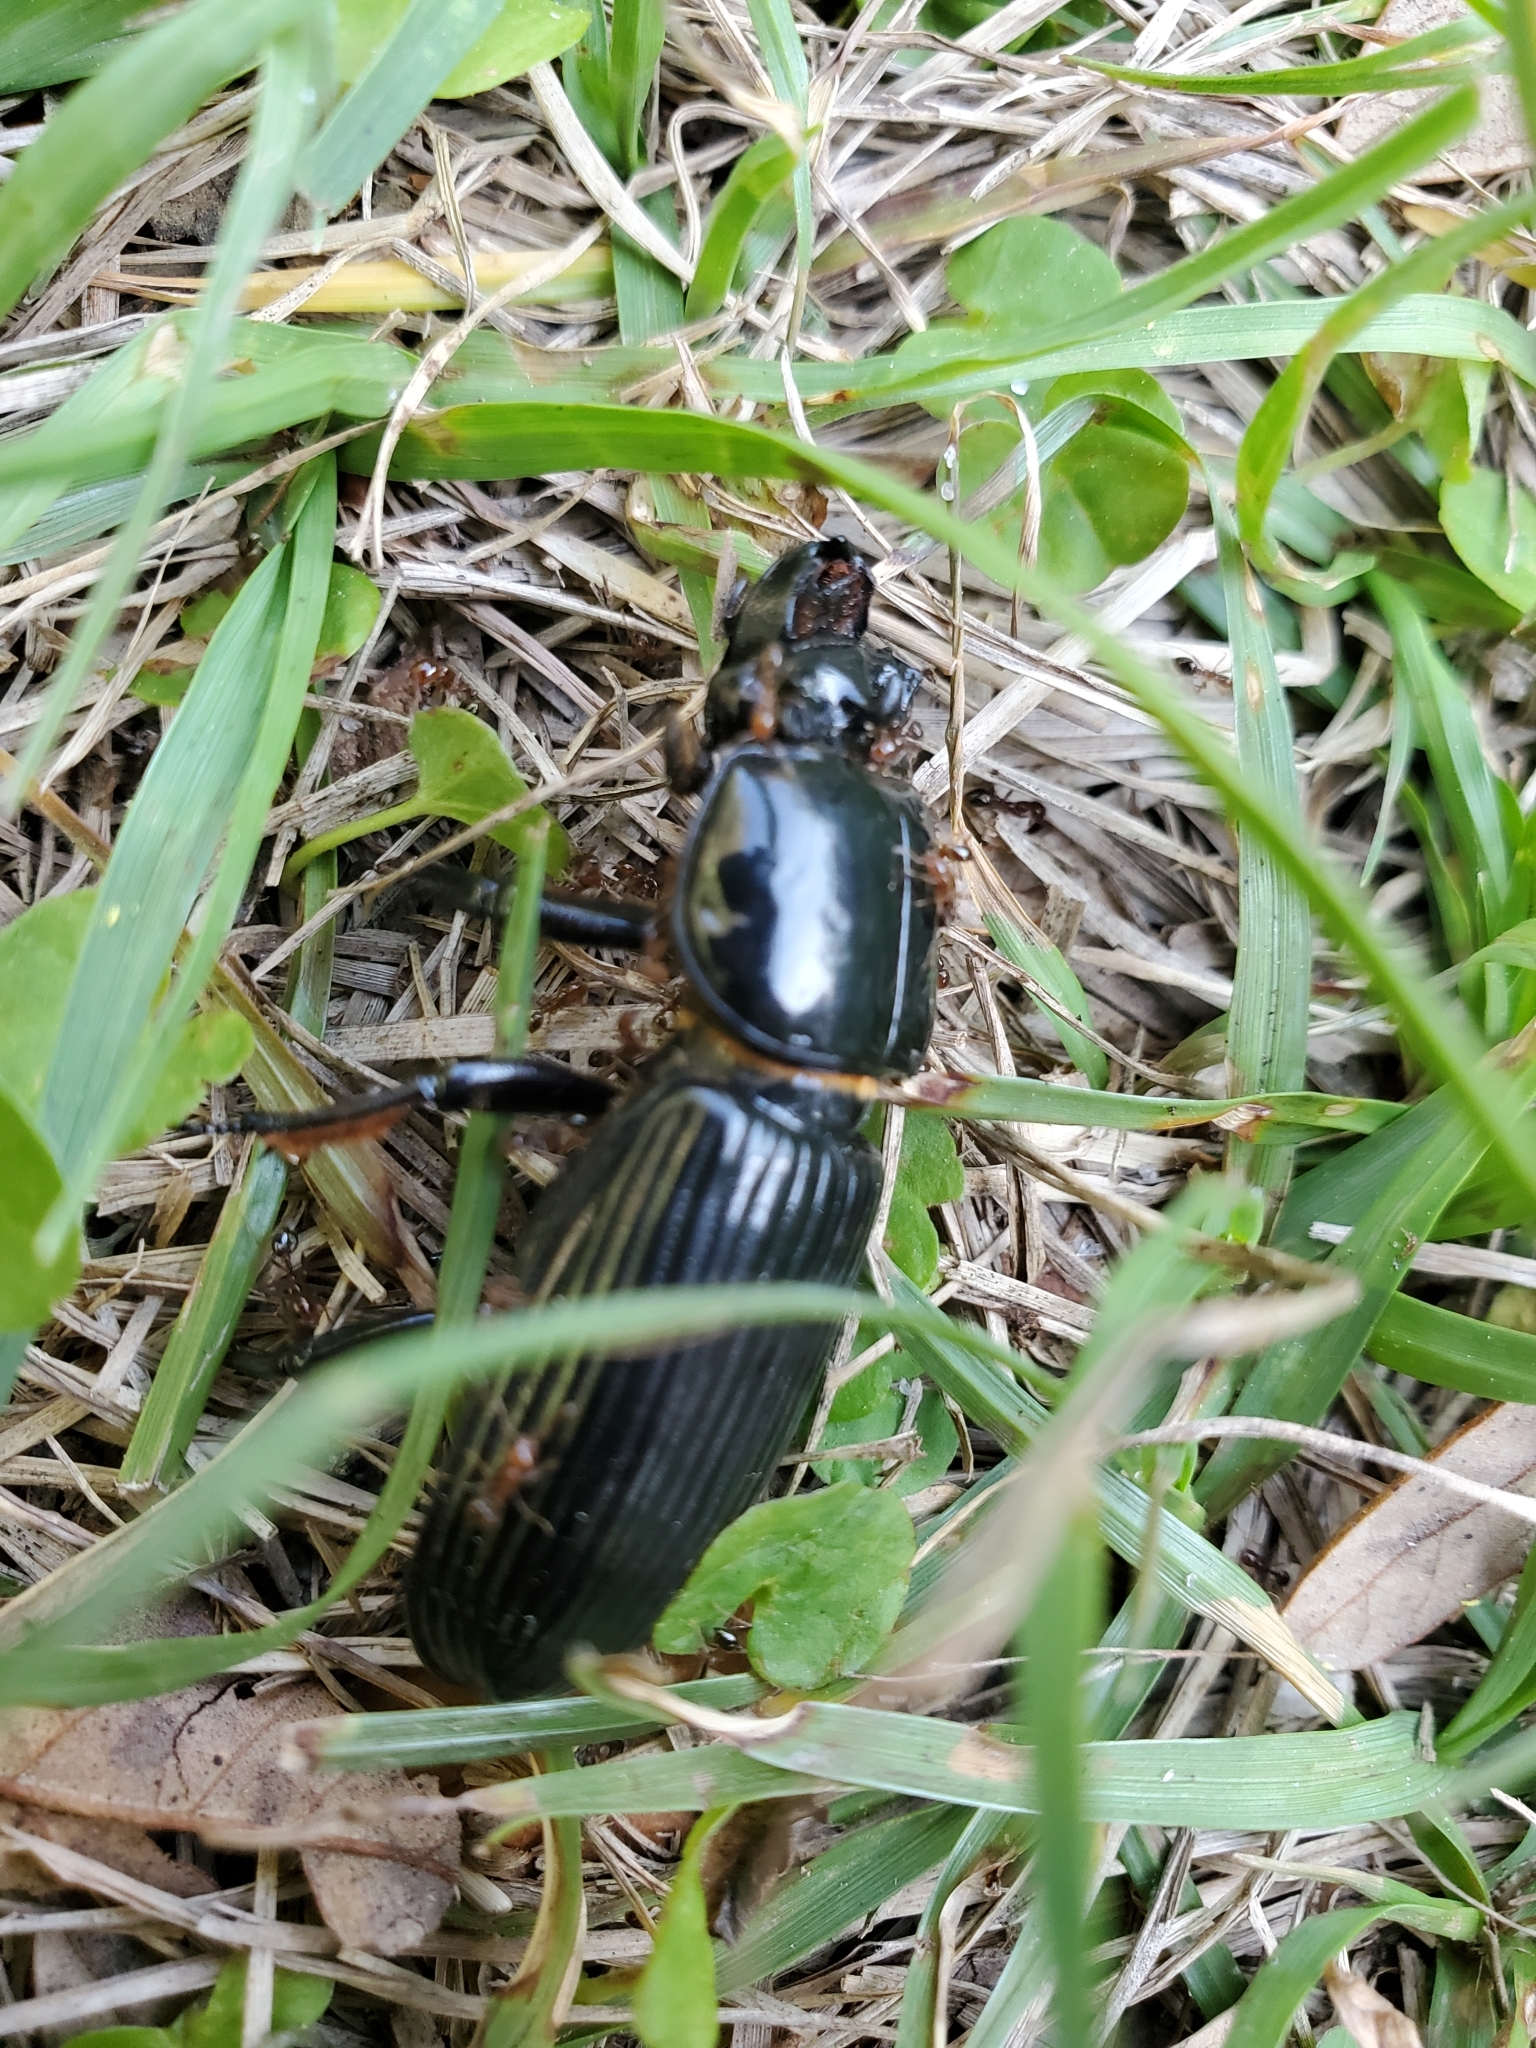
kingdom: Animalia
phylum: Arthropoda
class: Insecta
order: Coleoptera
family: Passalidae
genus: Odontotaenius
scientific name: Odontotaenius disjunctus
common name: Patent leather beetle
